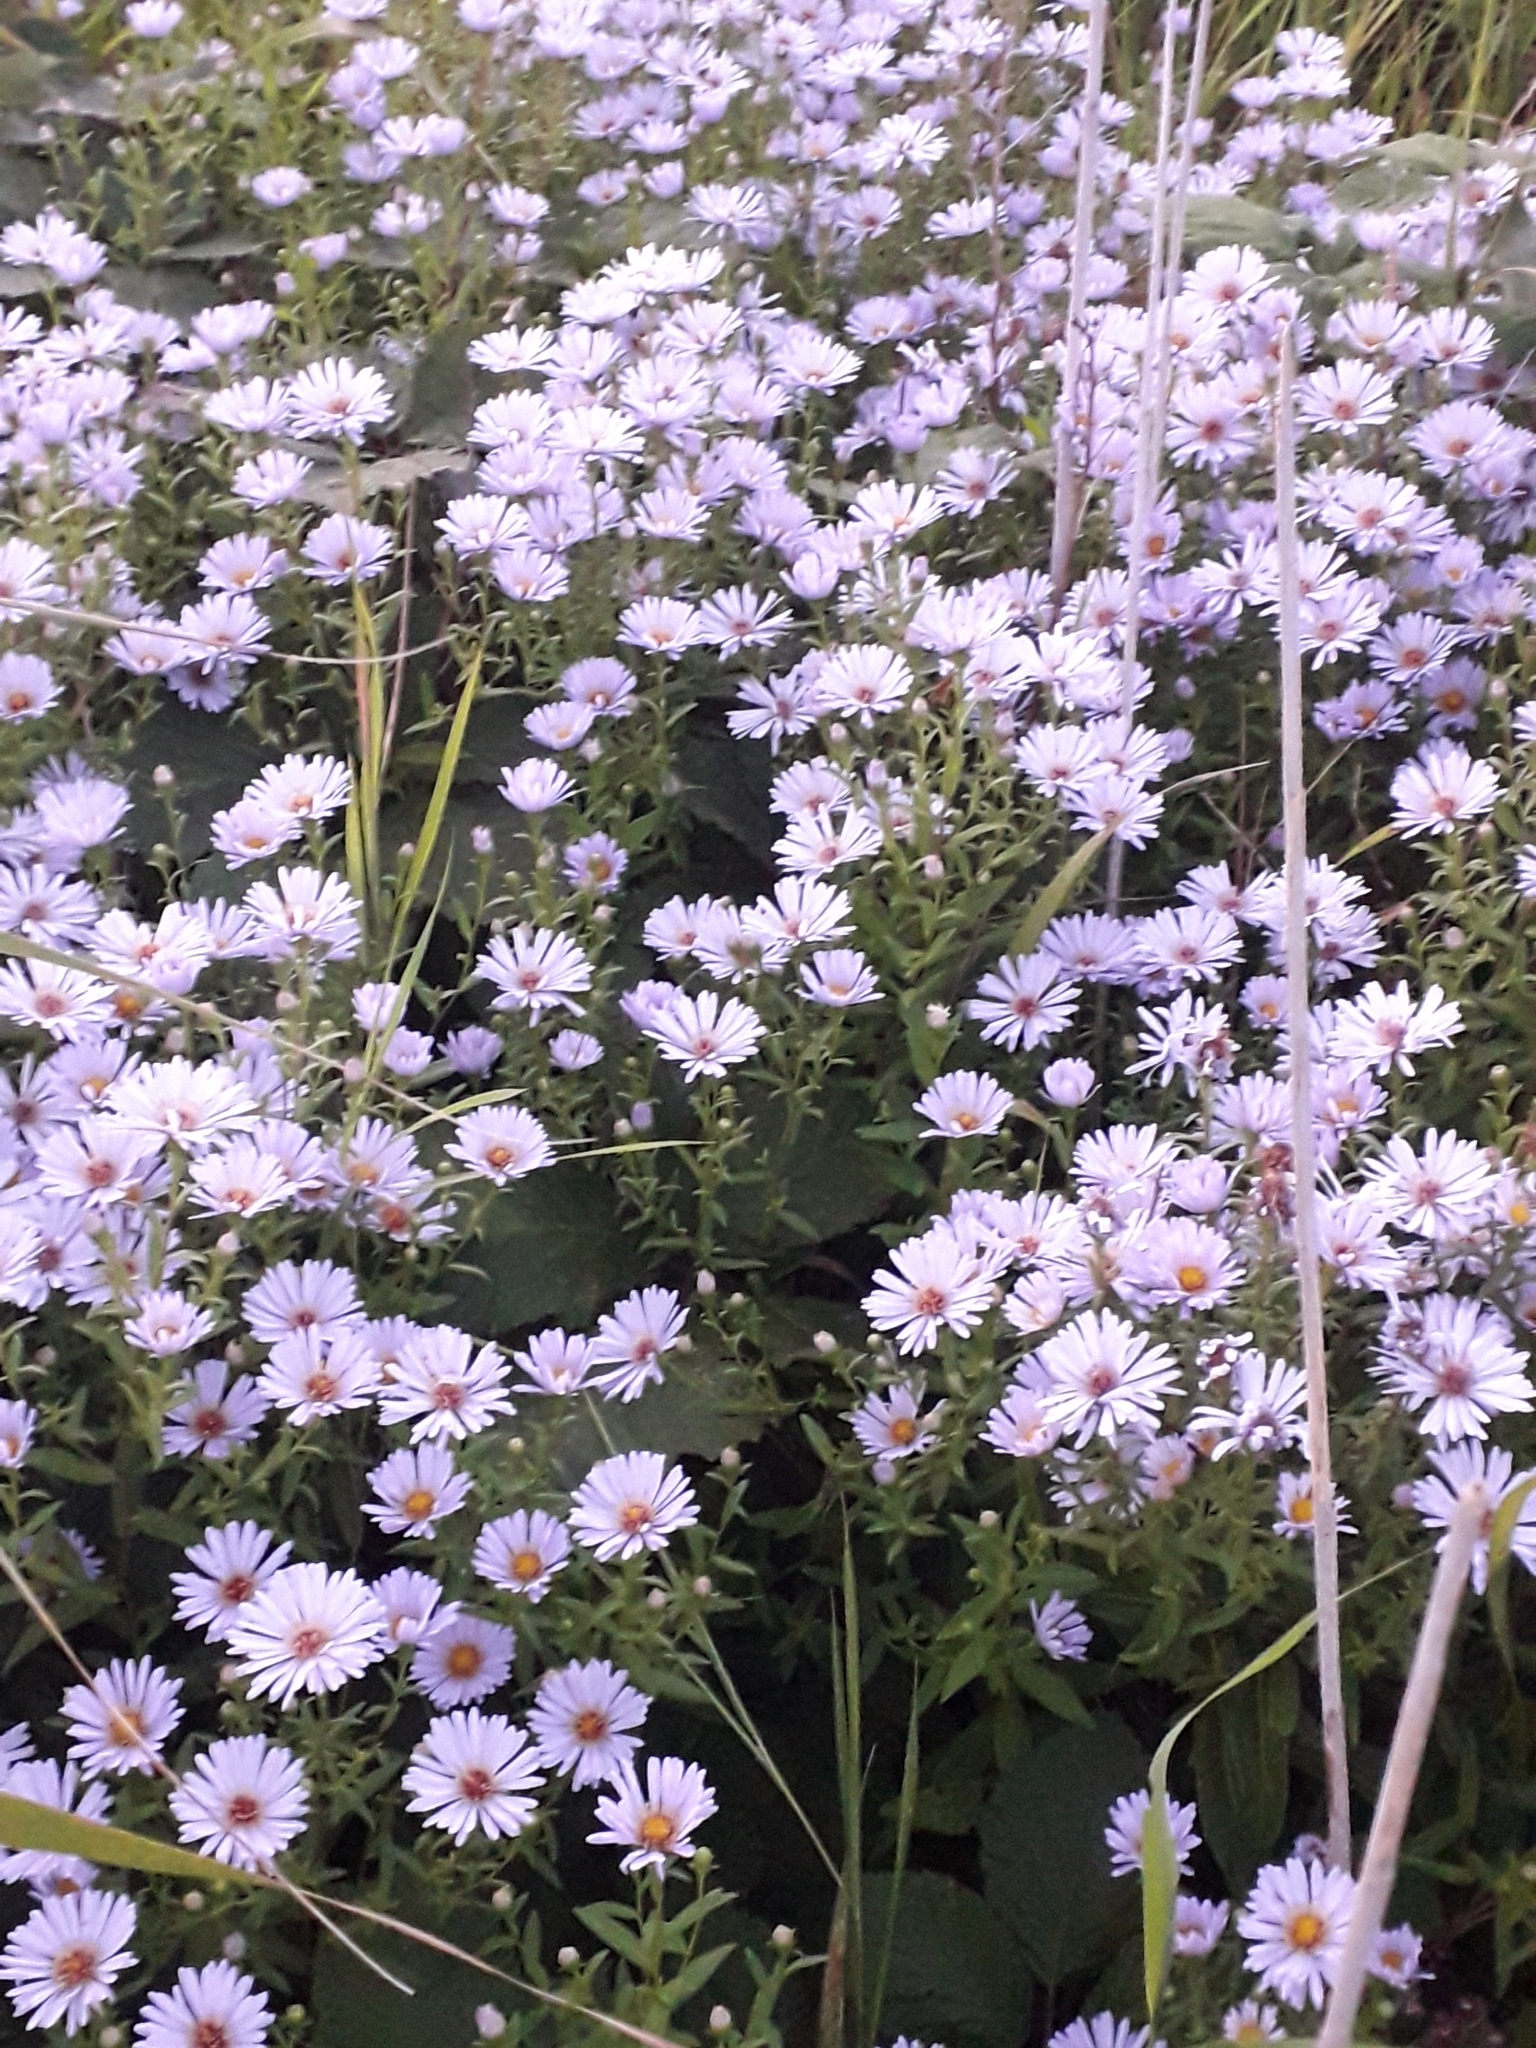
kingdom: Plantae
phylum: Tracheophyta
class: Magnoliopsida
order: Asterales
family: Asteraceae
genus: Symphyotrichum
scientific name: Symphyotrichum novi-belgii
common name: Michaelmas daisy
